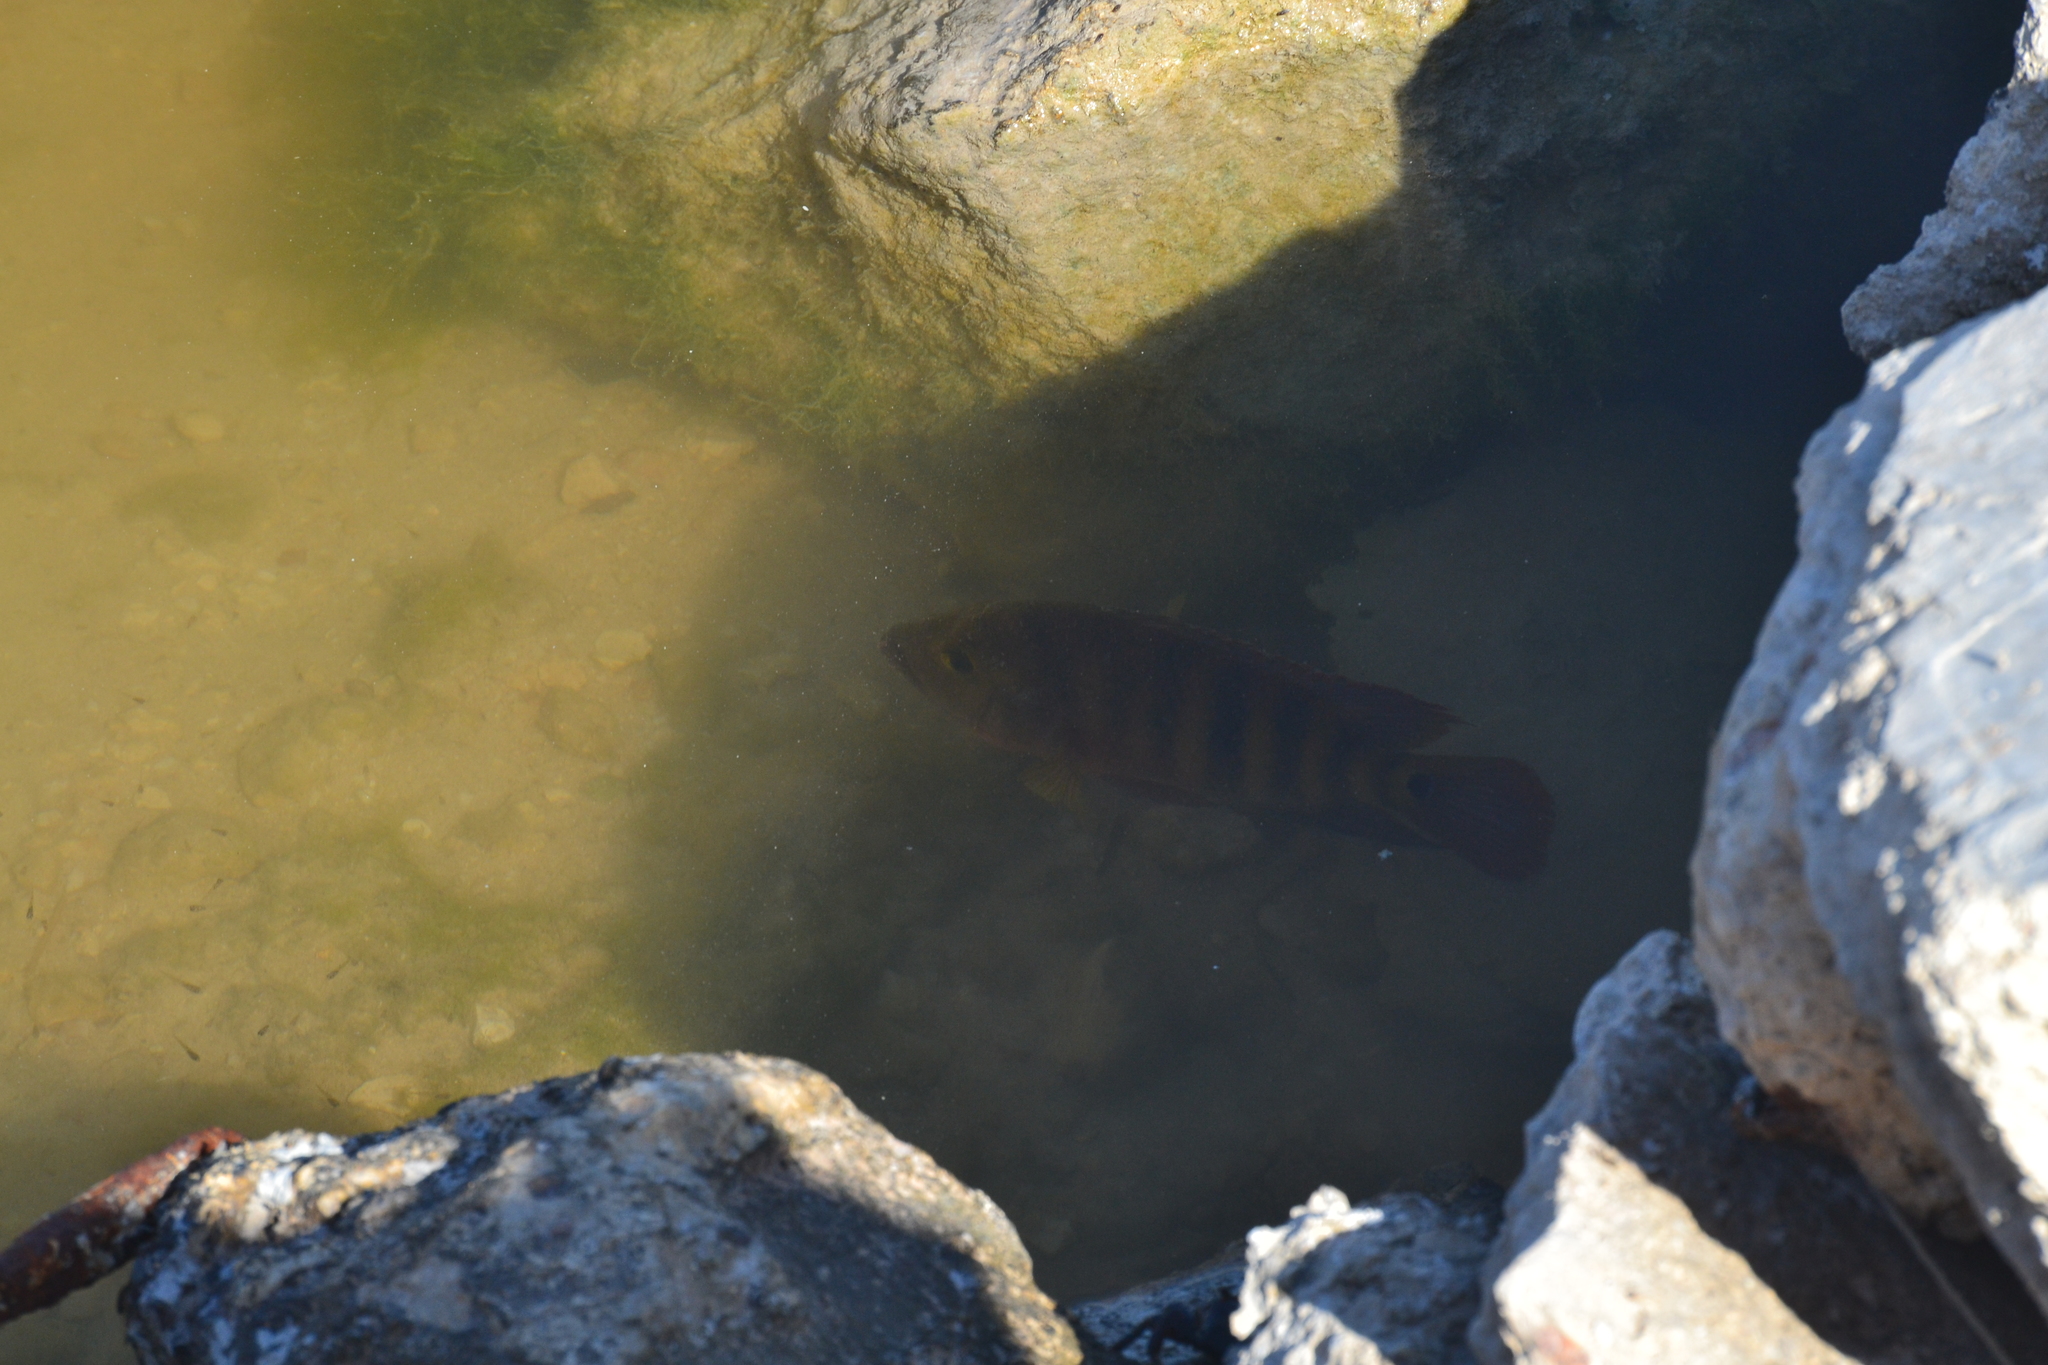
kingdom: Animalia
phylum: Chordata
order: Perciformes
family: Cichlidae
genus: Mayaheros
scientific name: Mayaheros urophthalmus
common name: Mayan cichlid
